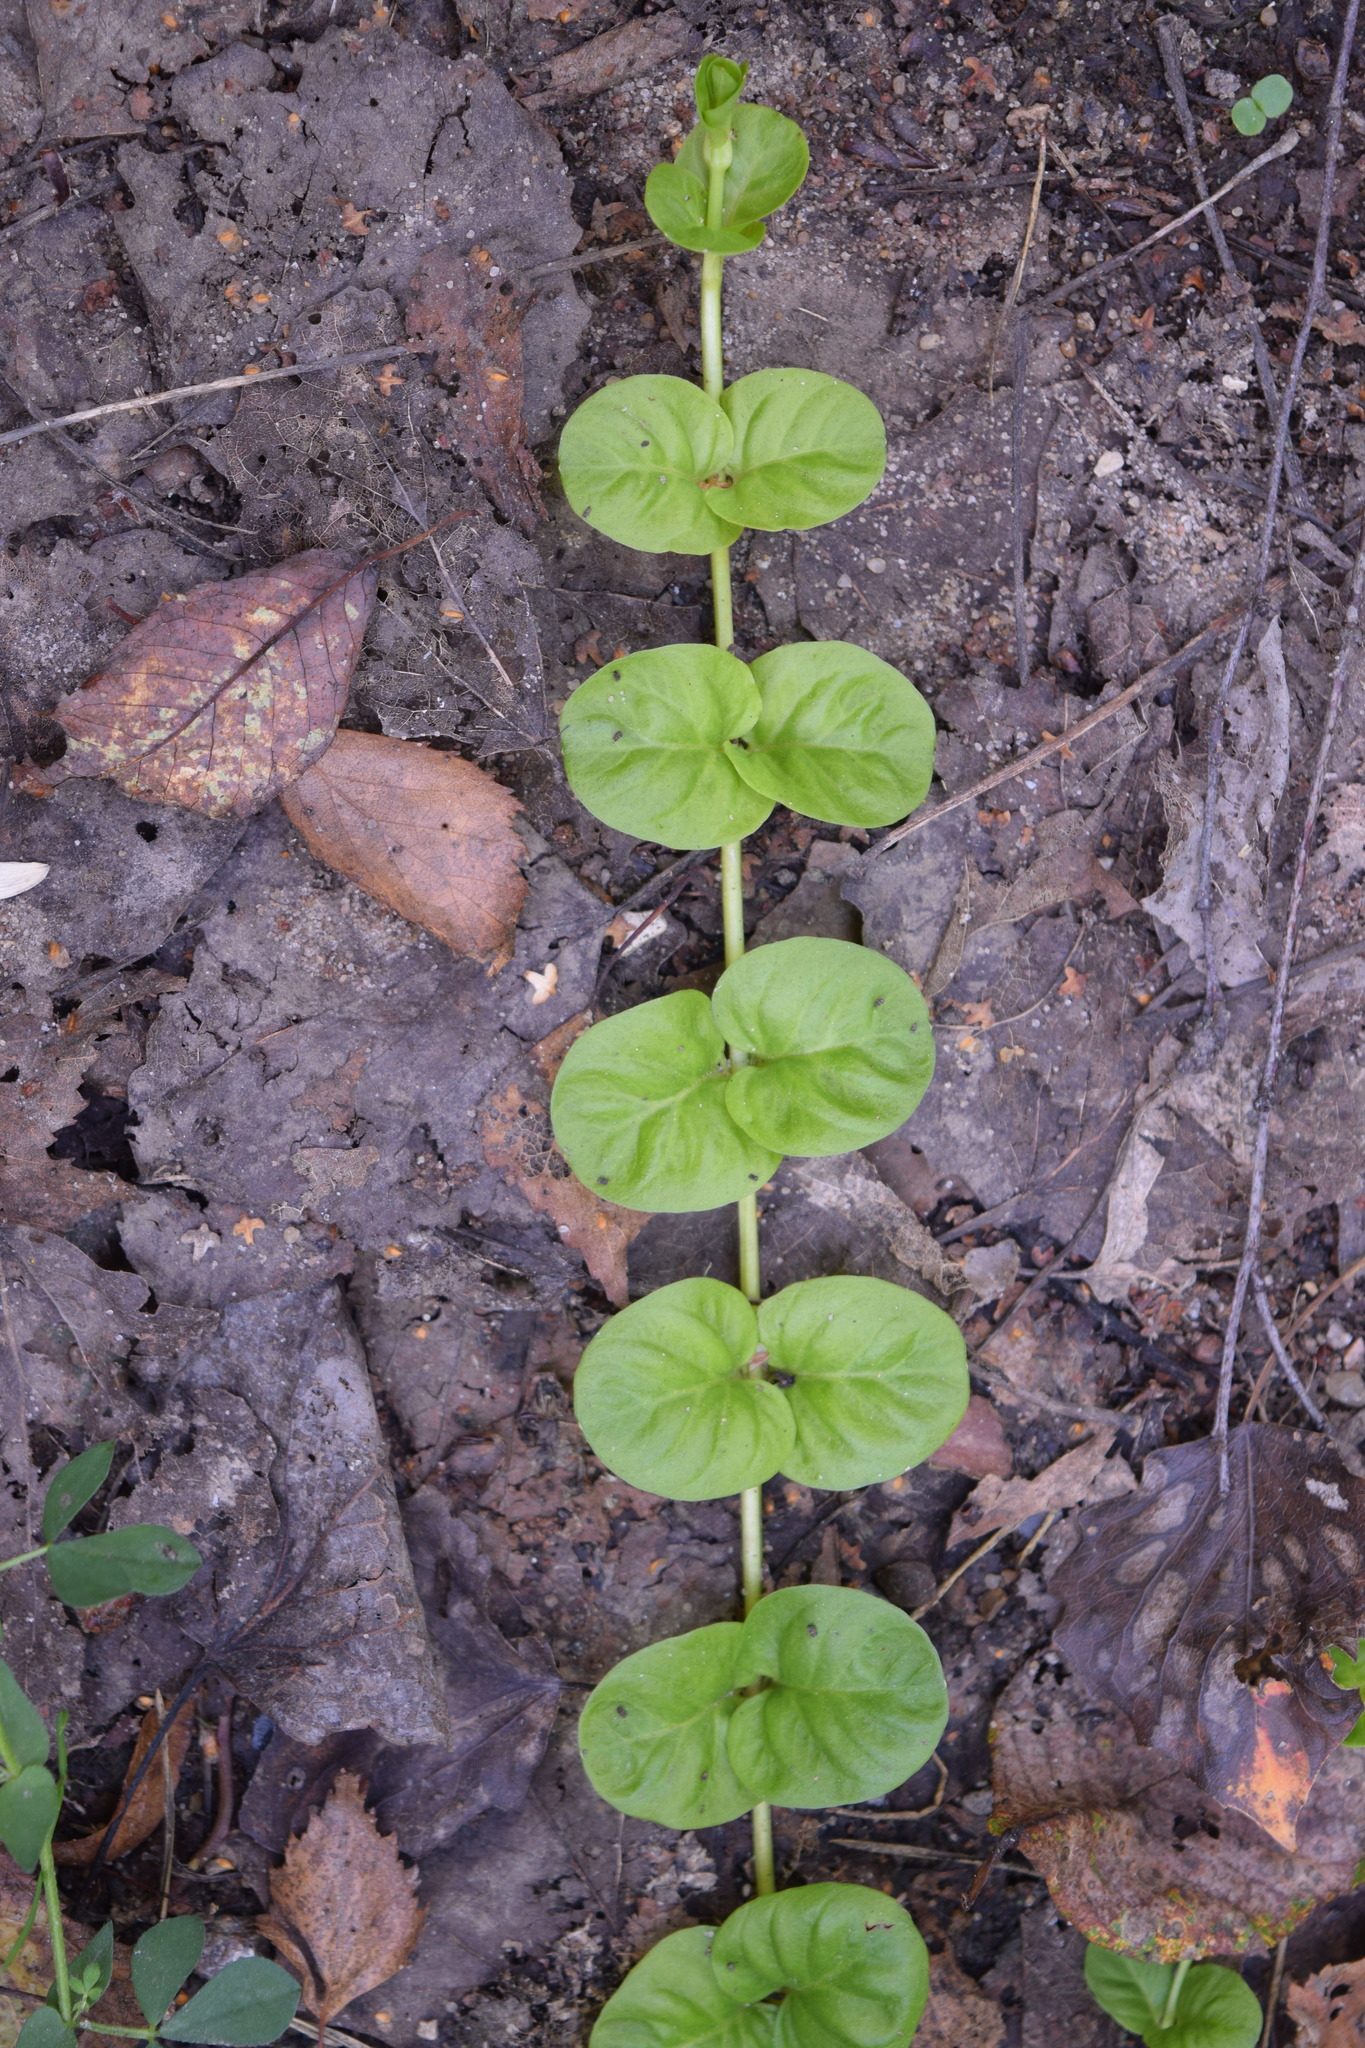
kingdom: Plantae
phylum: Tracheophyta
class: Magnoliopsida
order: Ericales
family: Primulaceae
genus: Lysimachia
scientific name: Lysimachia nummularia
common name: Moneywort
